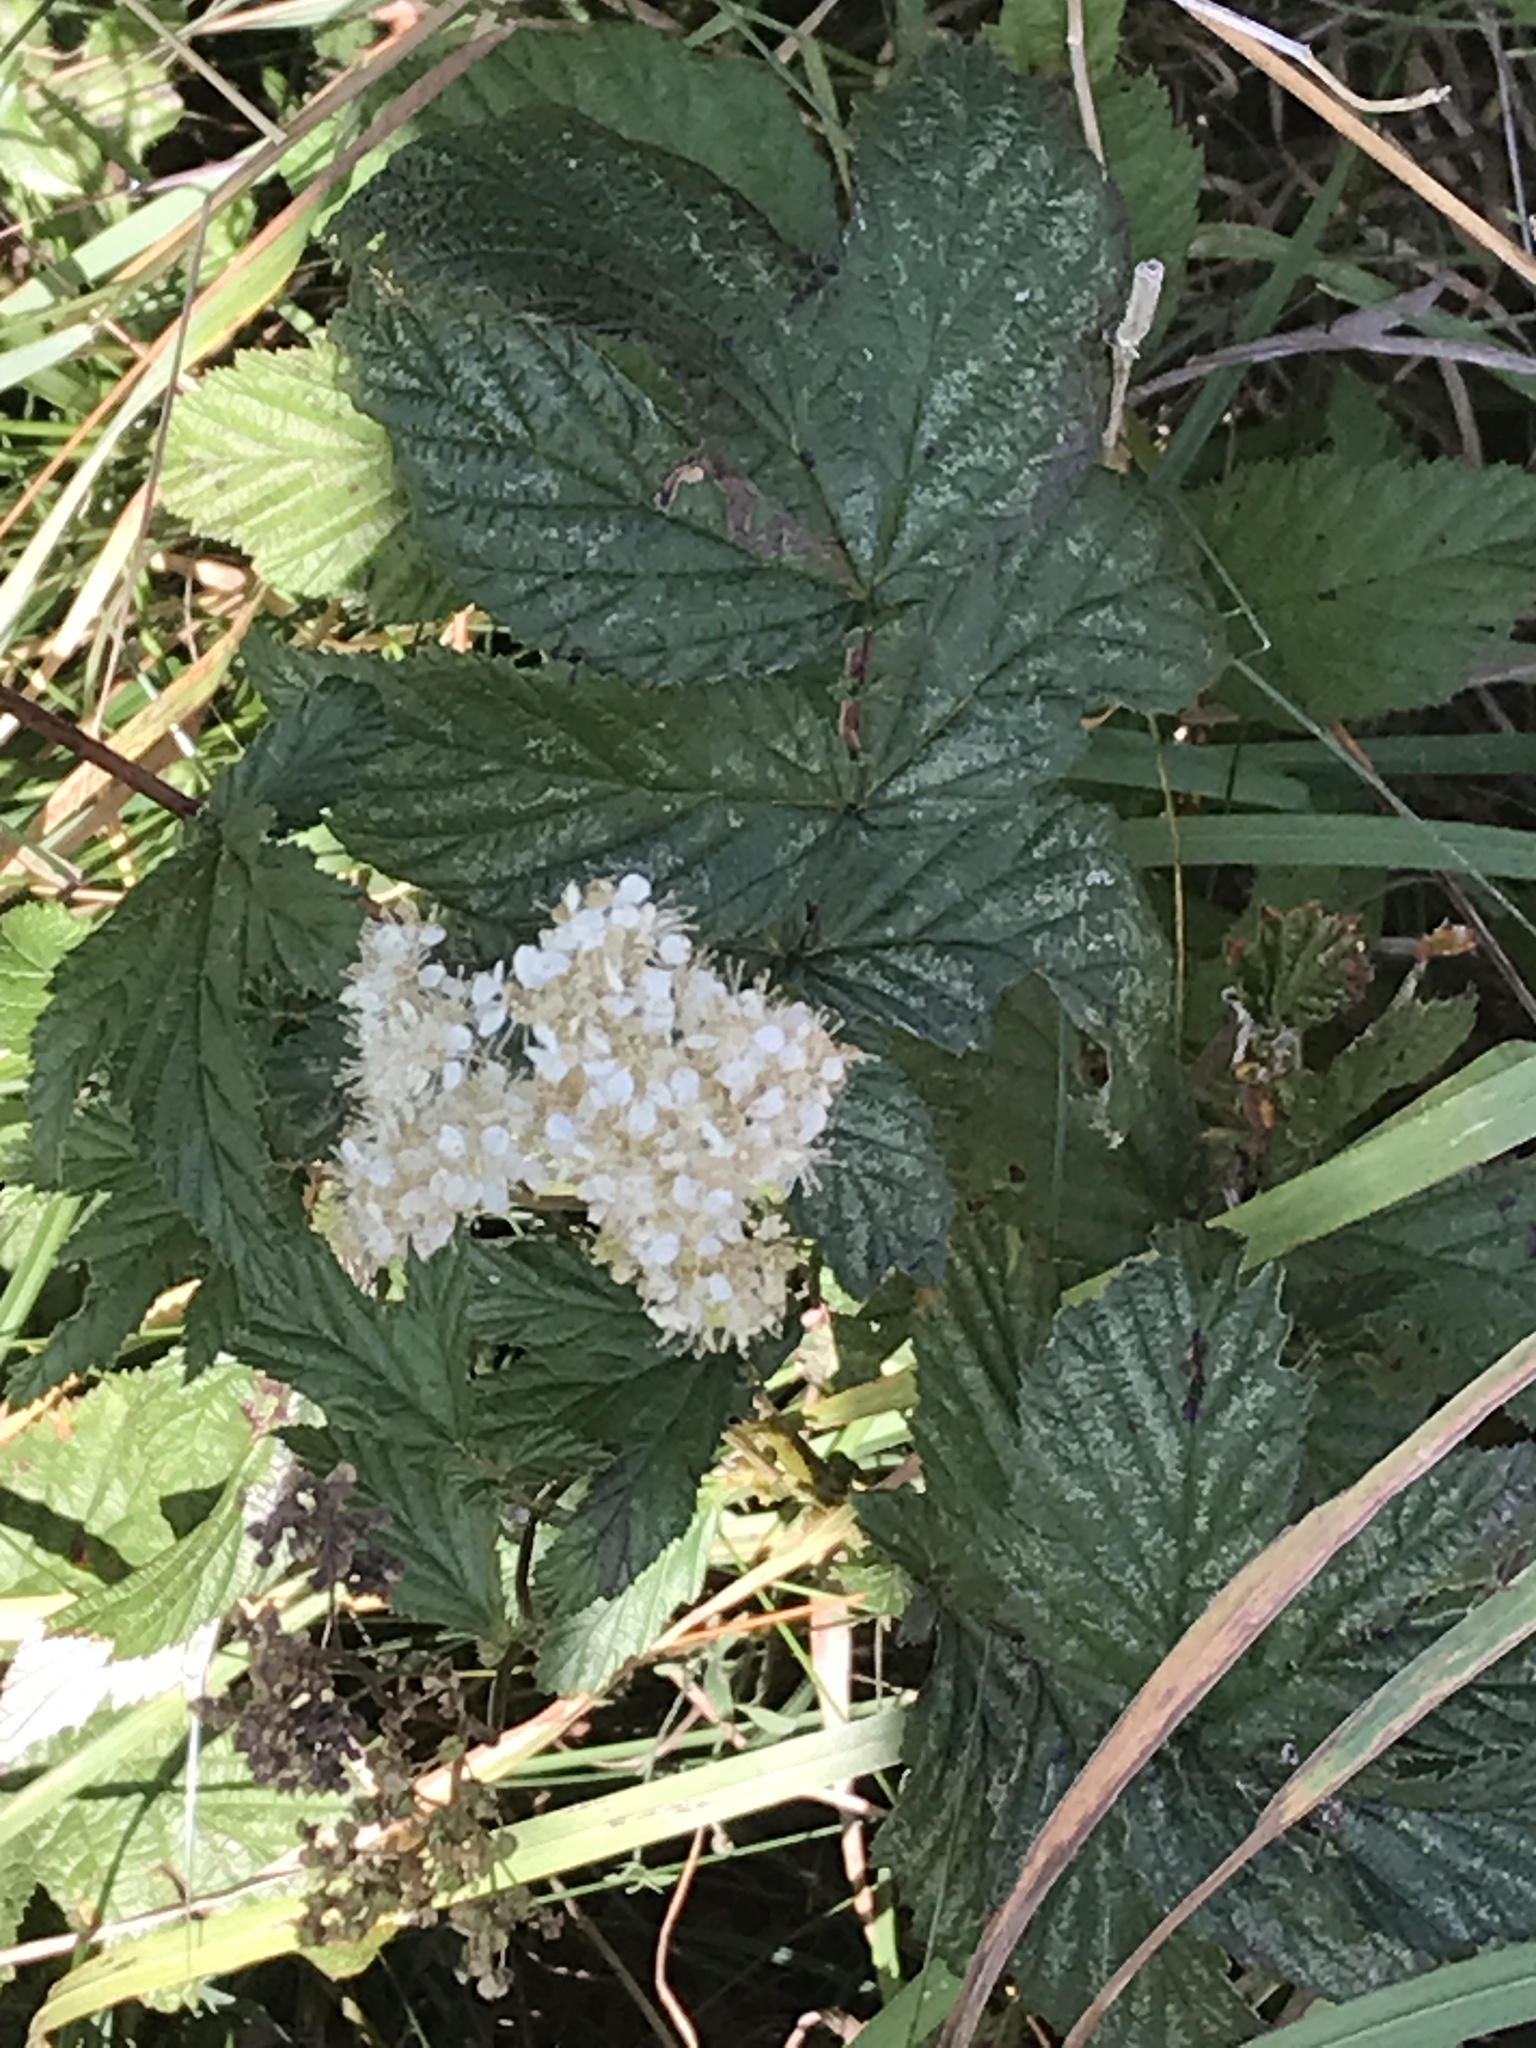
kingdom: Plantae
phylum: Tracheophyta
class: Magnoliopsida
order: Rosales
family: Rosaceae
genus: Filipendula
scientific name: Filipendula ulmaria
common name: Meadowsweet
